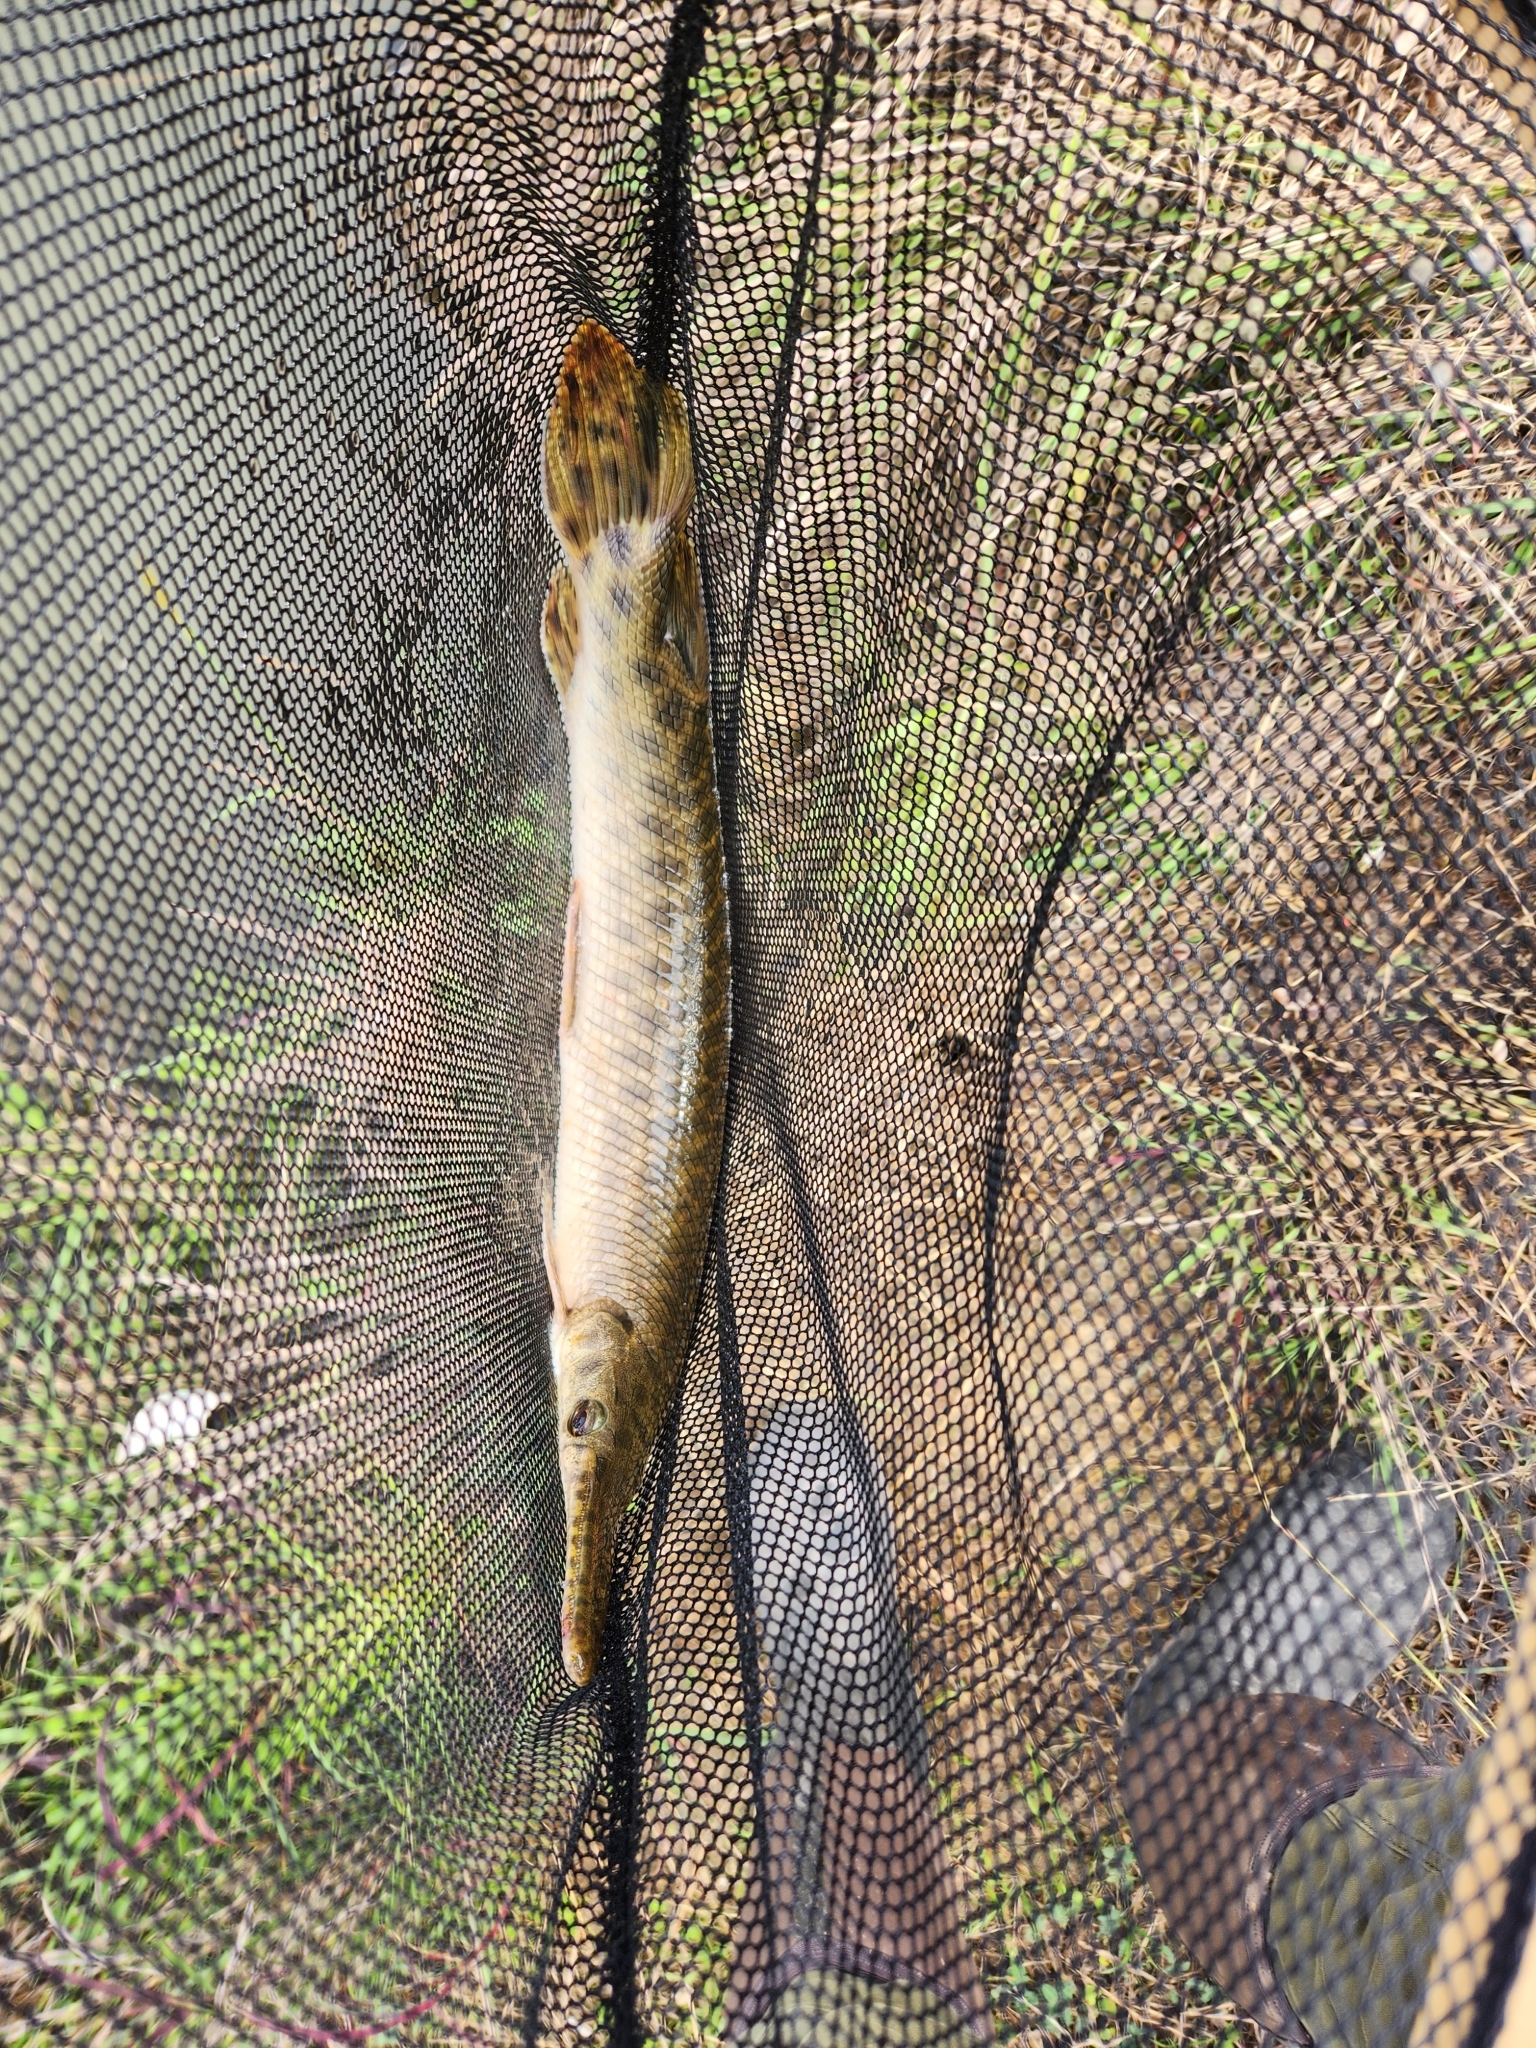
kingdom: Animalia
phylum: Chordata
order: Lepisosteiformes
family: Lepisosteidae
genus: Lepisosteus
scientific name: Lepisosteus oculatus
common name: Spotted gar
